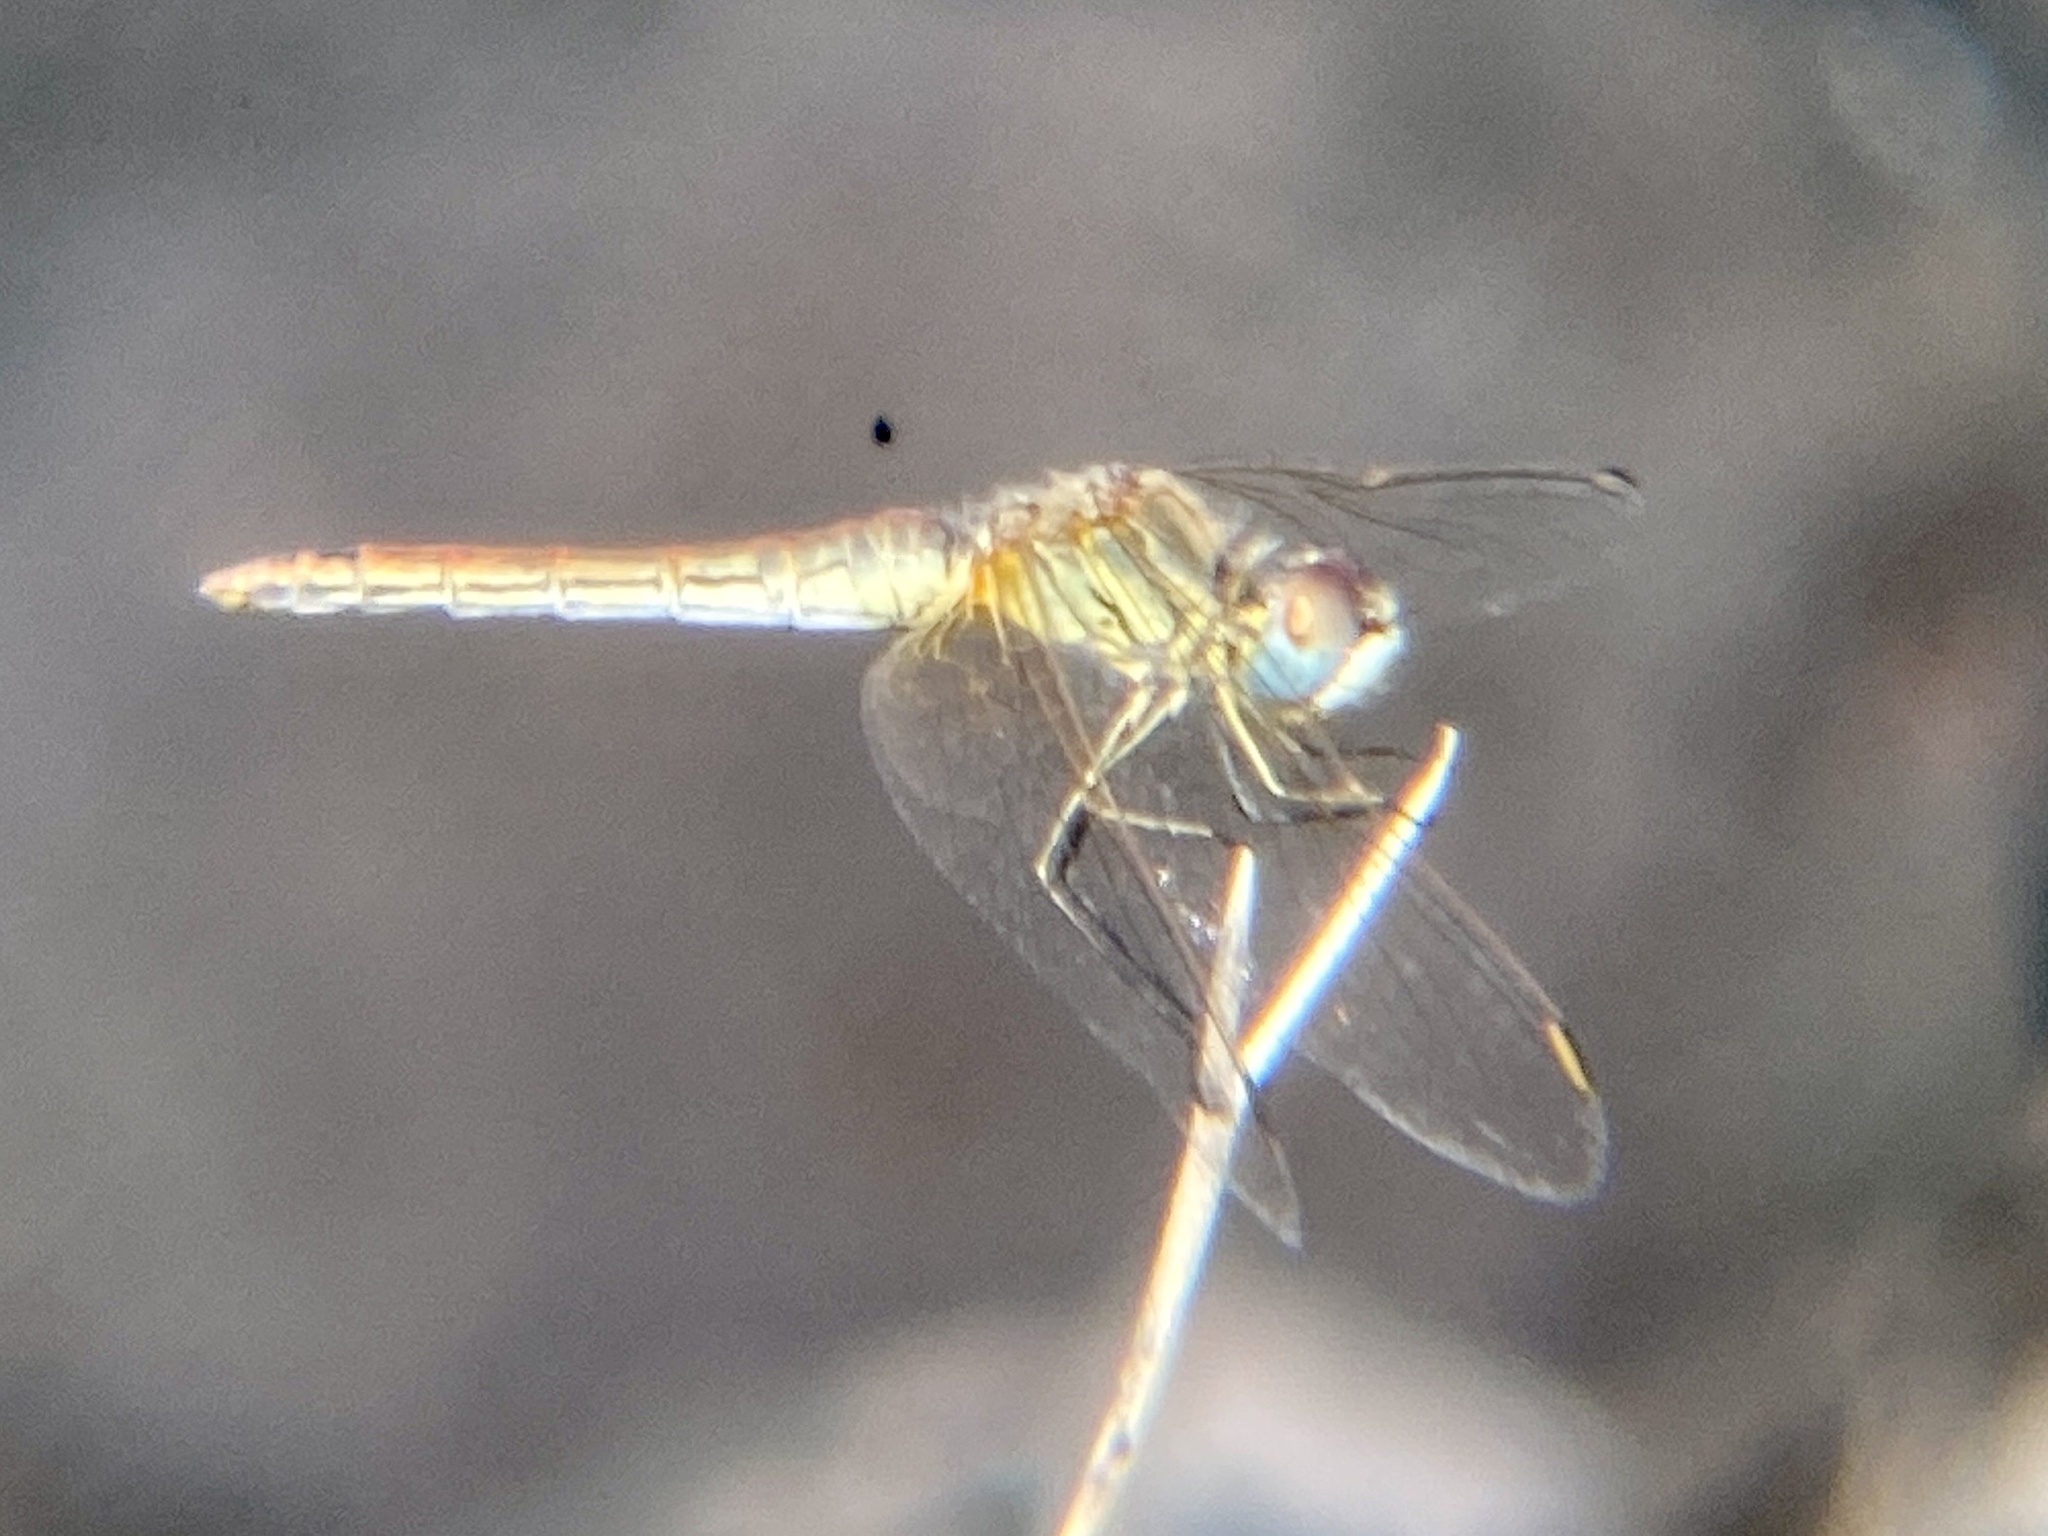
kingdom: Animalia
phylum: Arthropoda
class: Insecta
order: Odonata
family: Libellulidae
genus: Sympetrum
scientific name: Sympetrum fonscolombii
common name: Red-veined darter
